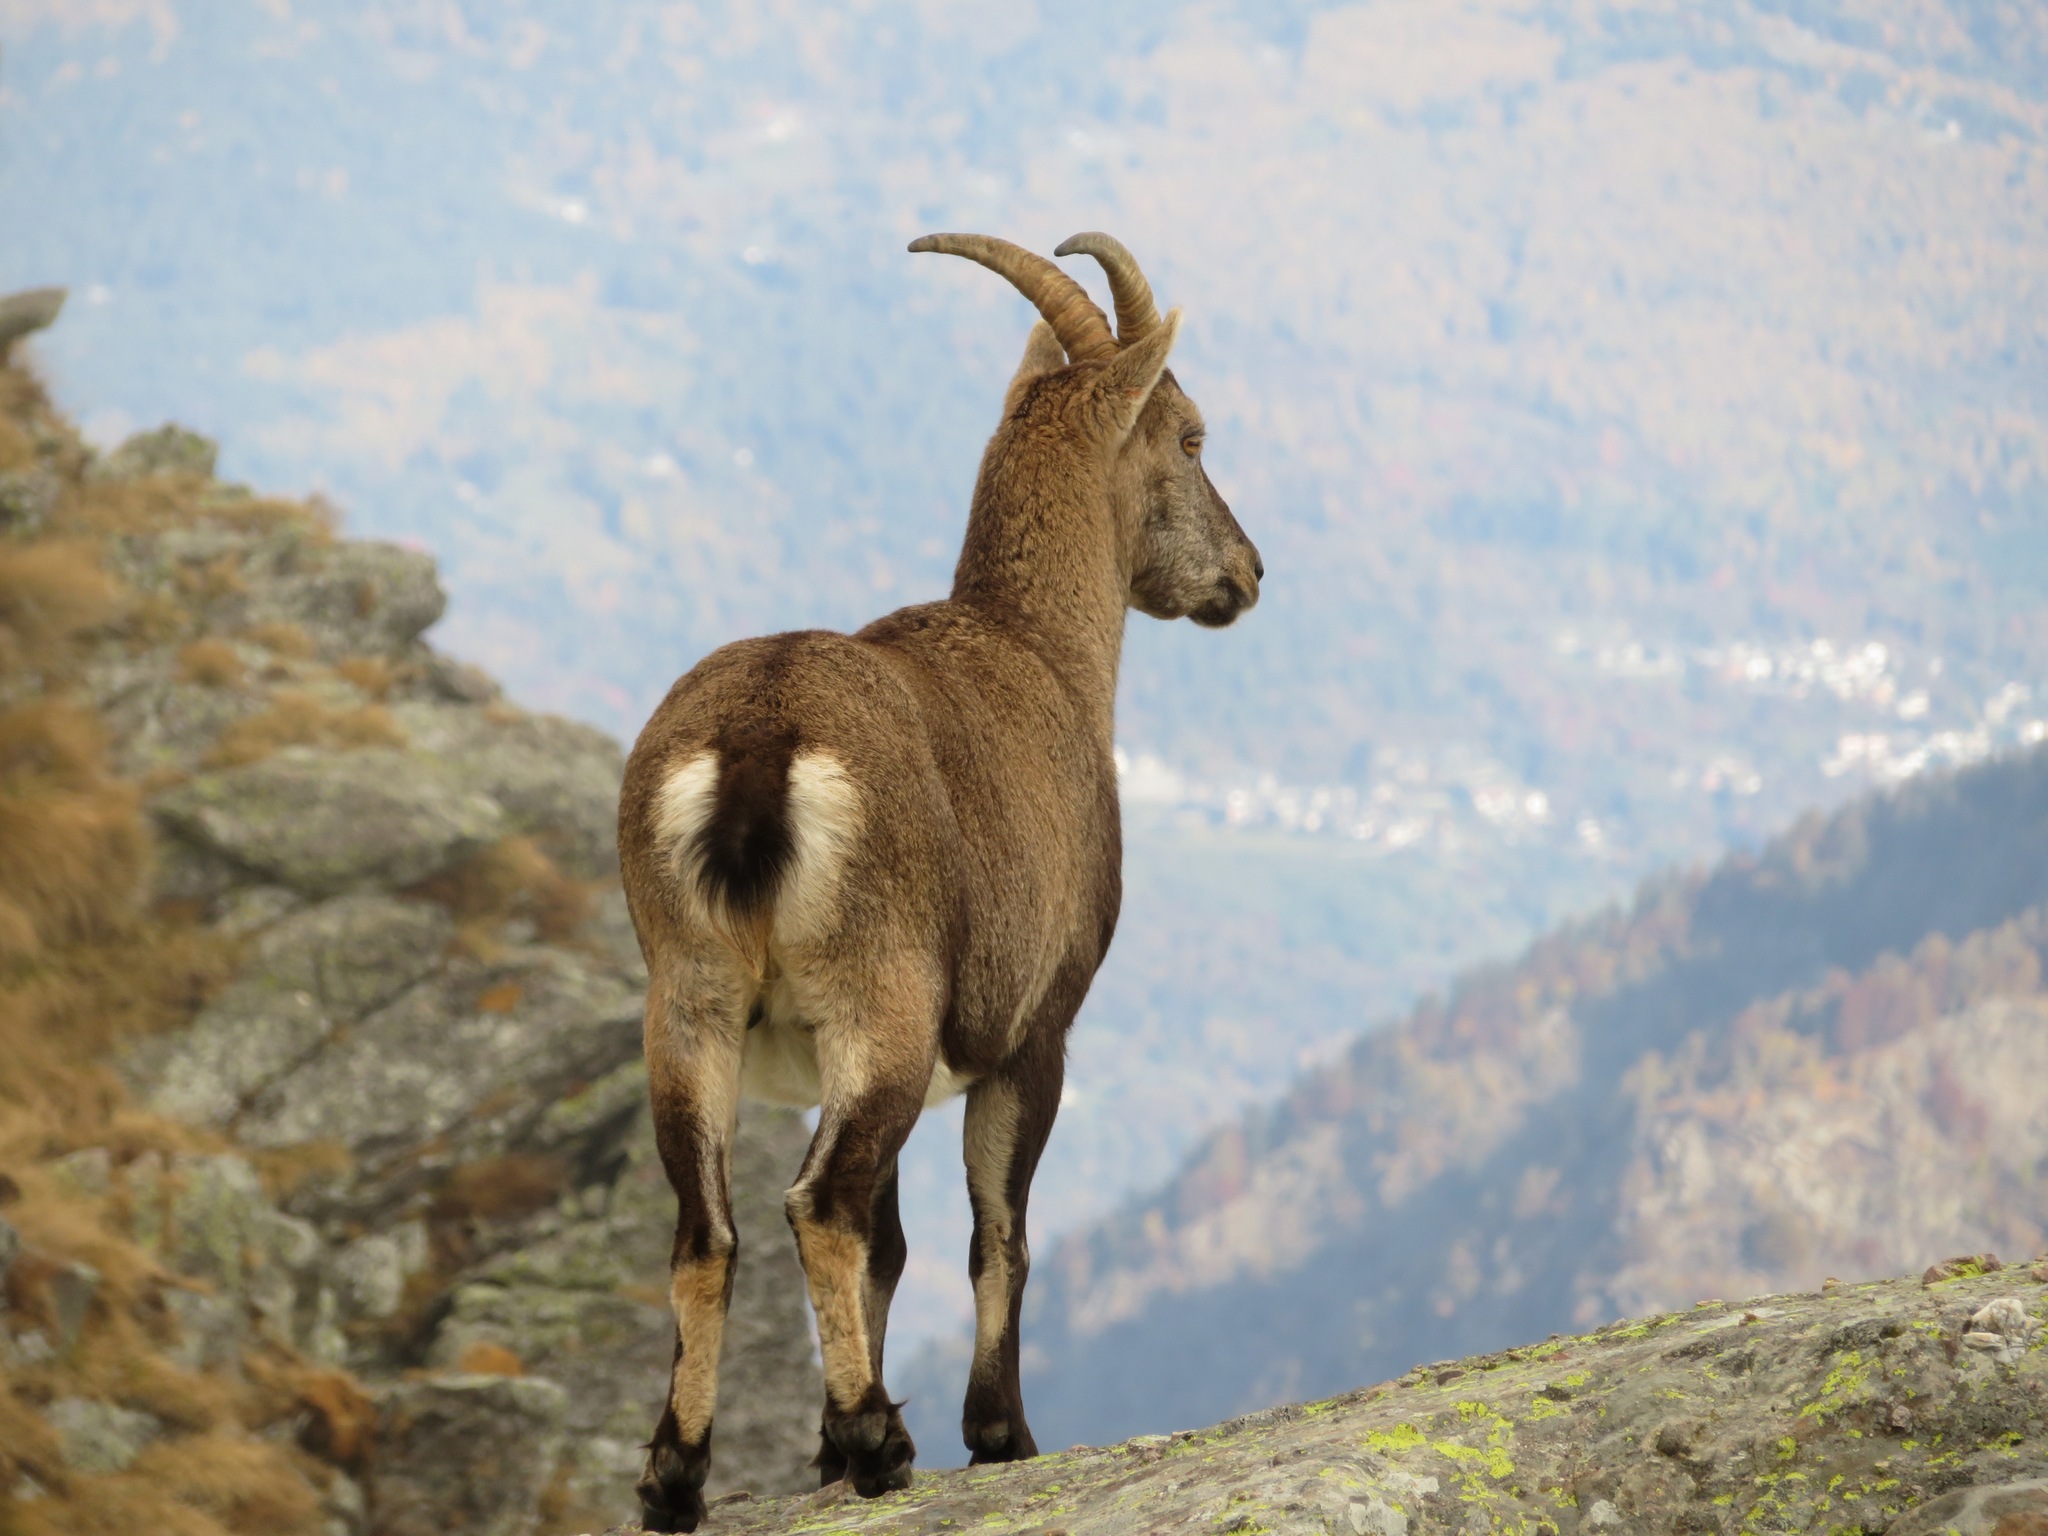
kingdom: Animalia
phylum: Chordata
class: Mammalia
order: Artiodactyla
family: Bovidae
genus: Capra
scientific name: Capra ibex
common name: Alpine ibex
